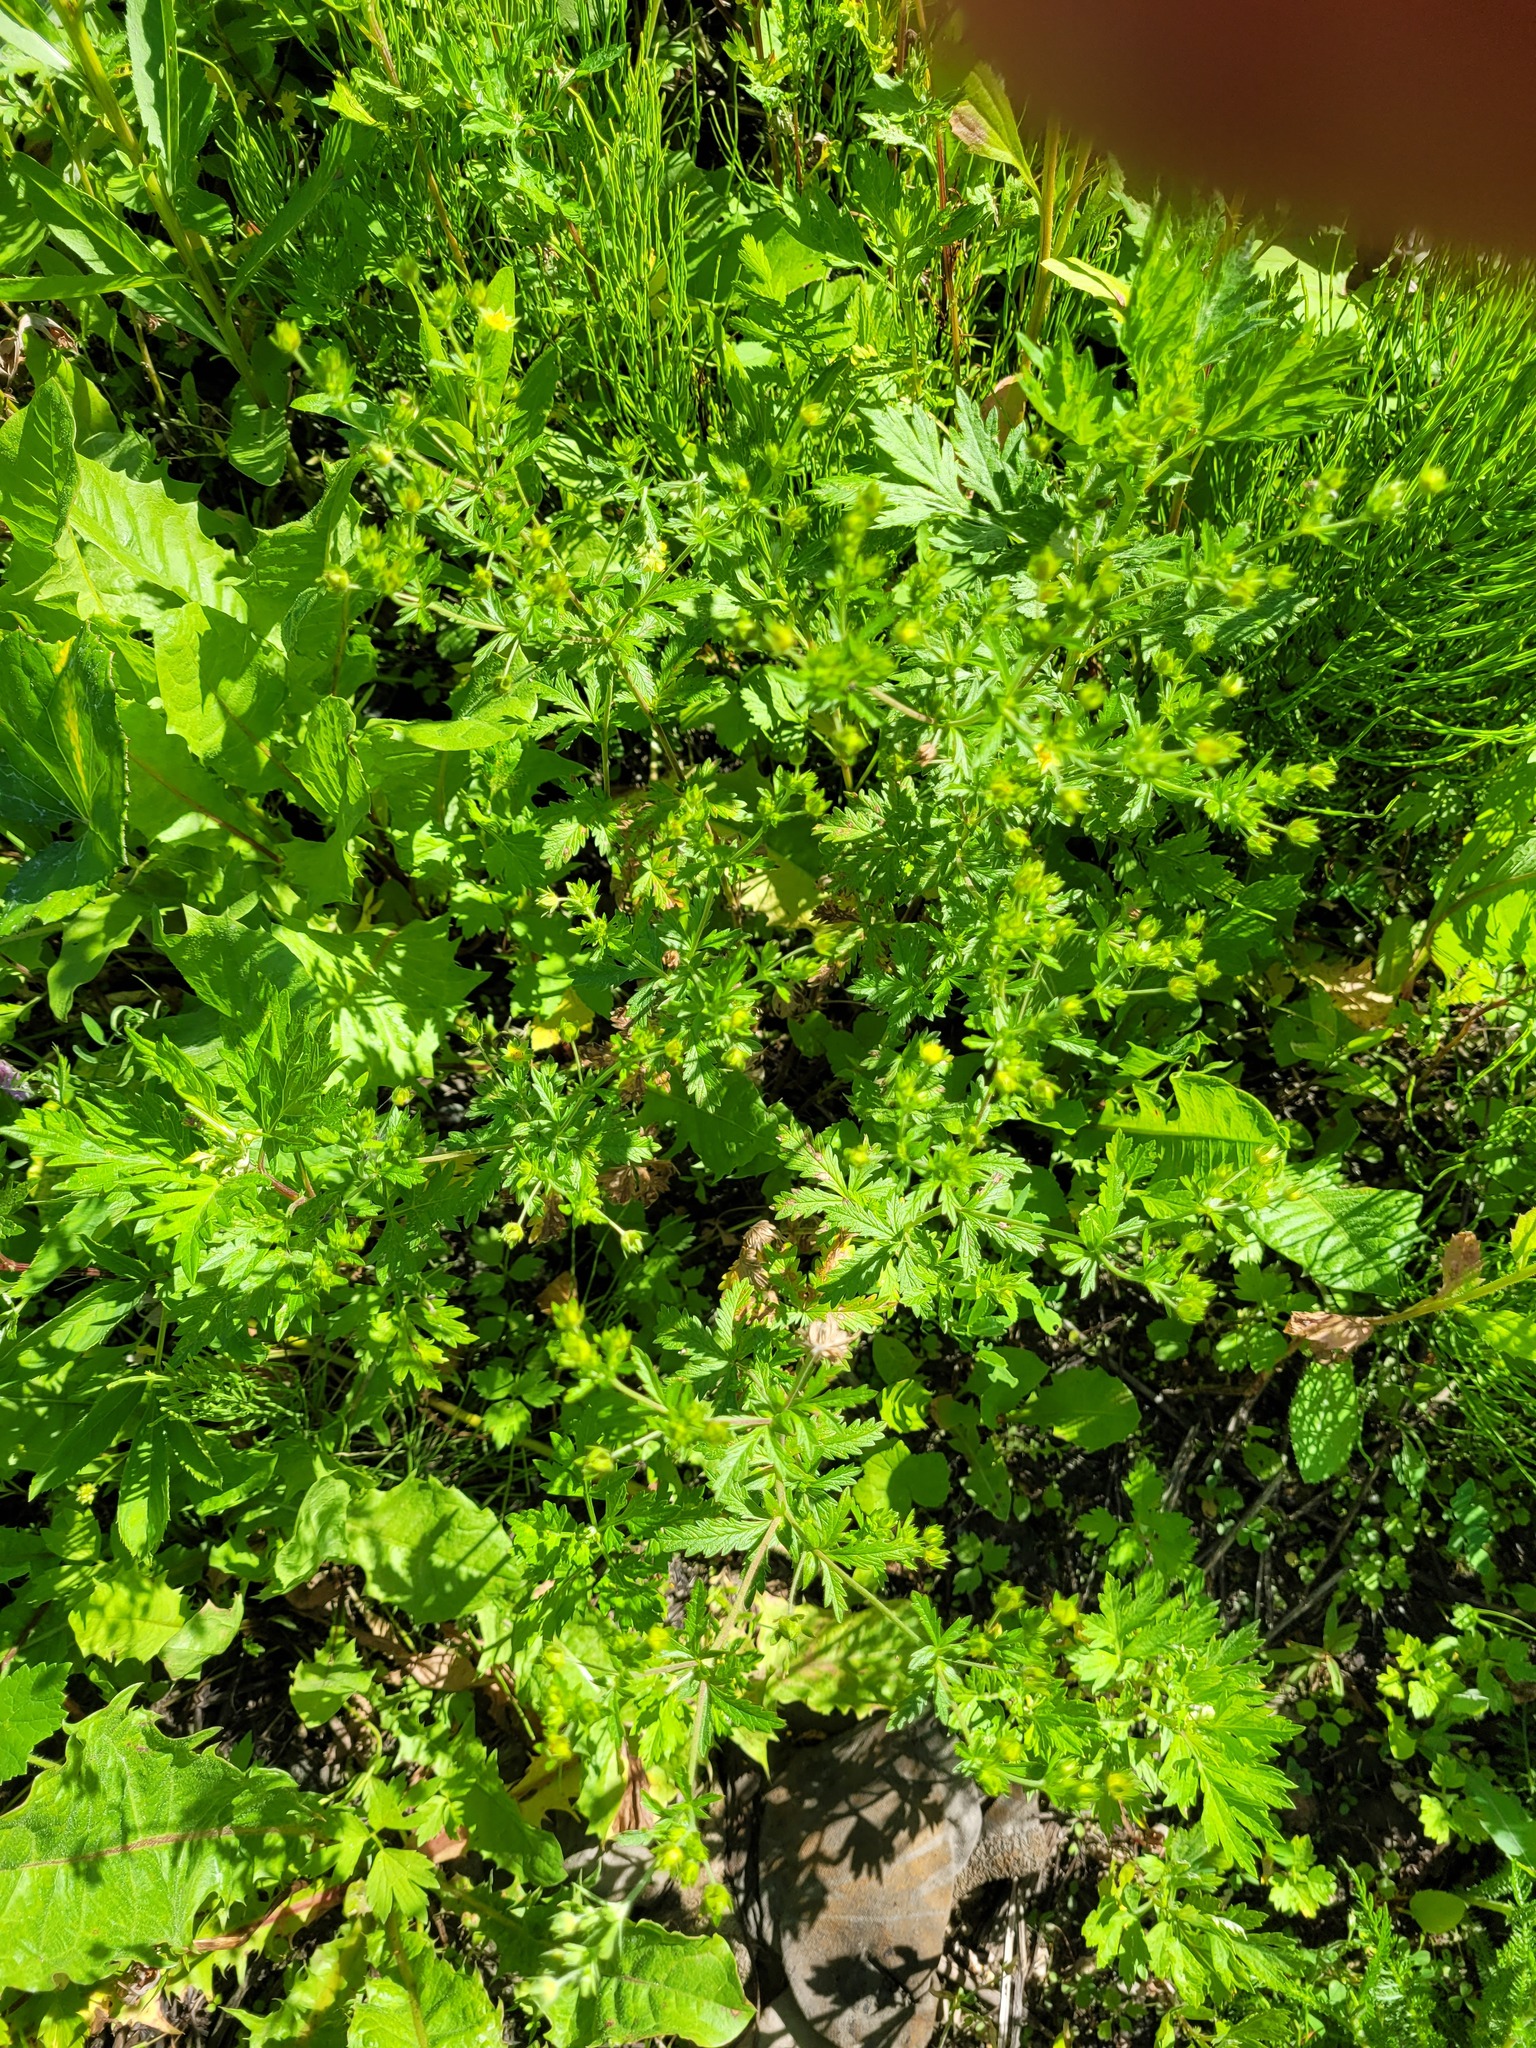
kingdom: Plantae
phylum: Tracheophyta
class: Magnoliopsida
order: Rosales
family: Rosaceae
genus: Potentilla
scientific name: Potentilla intermedia
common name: Downy cinquefoil
